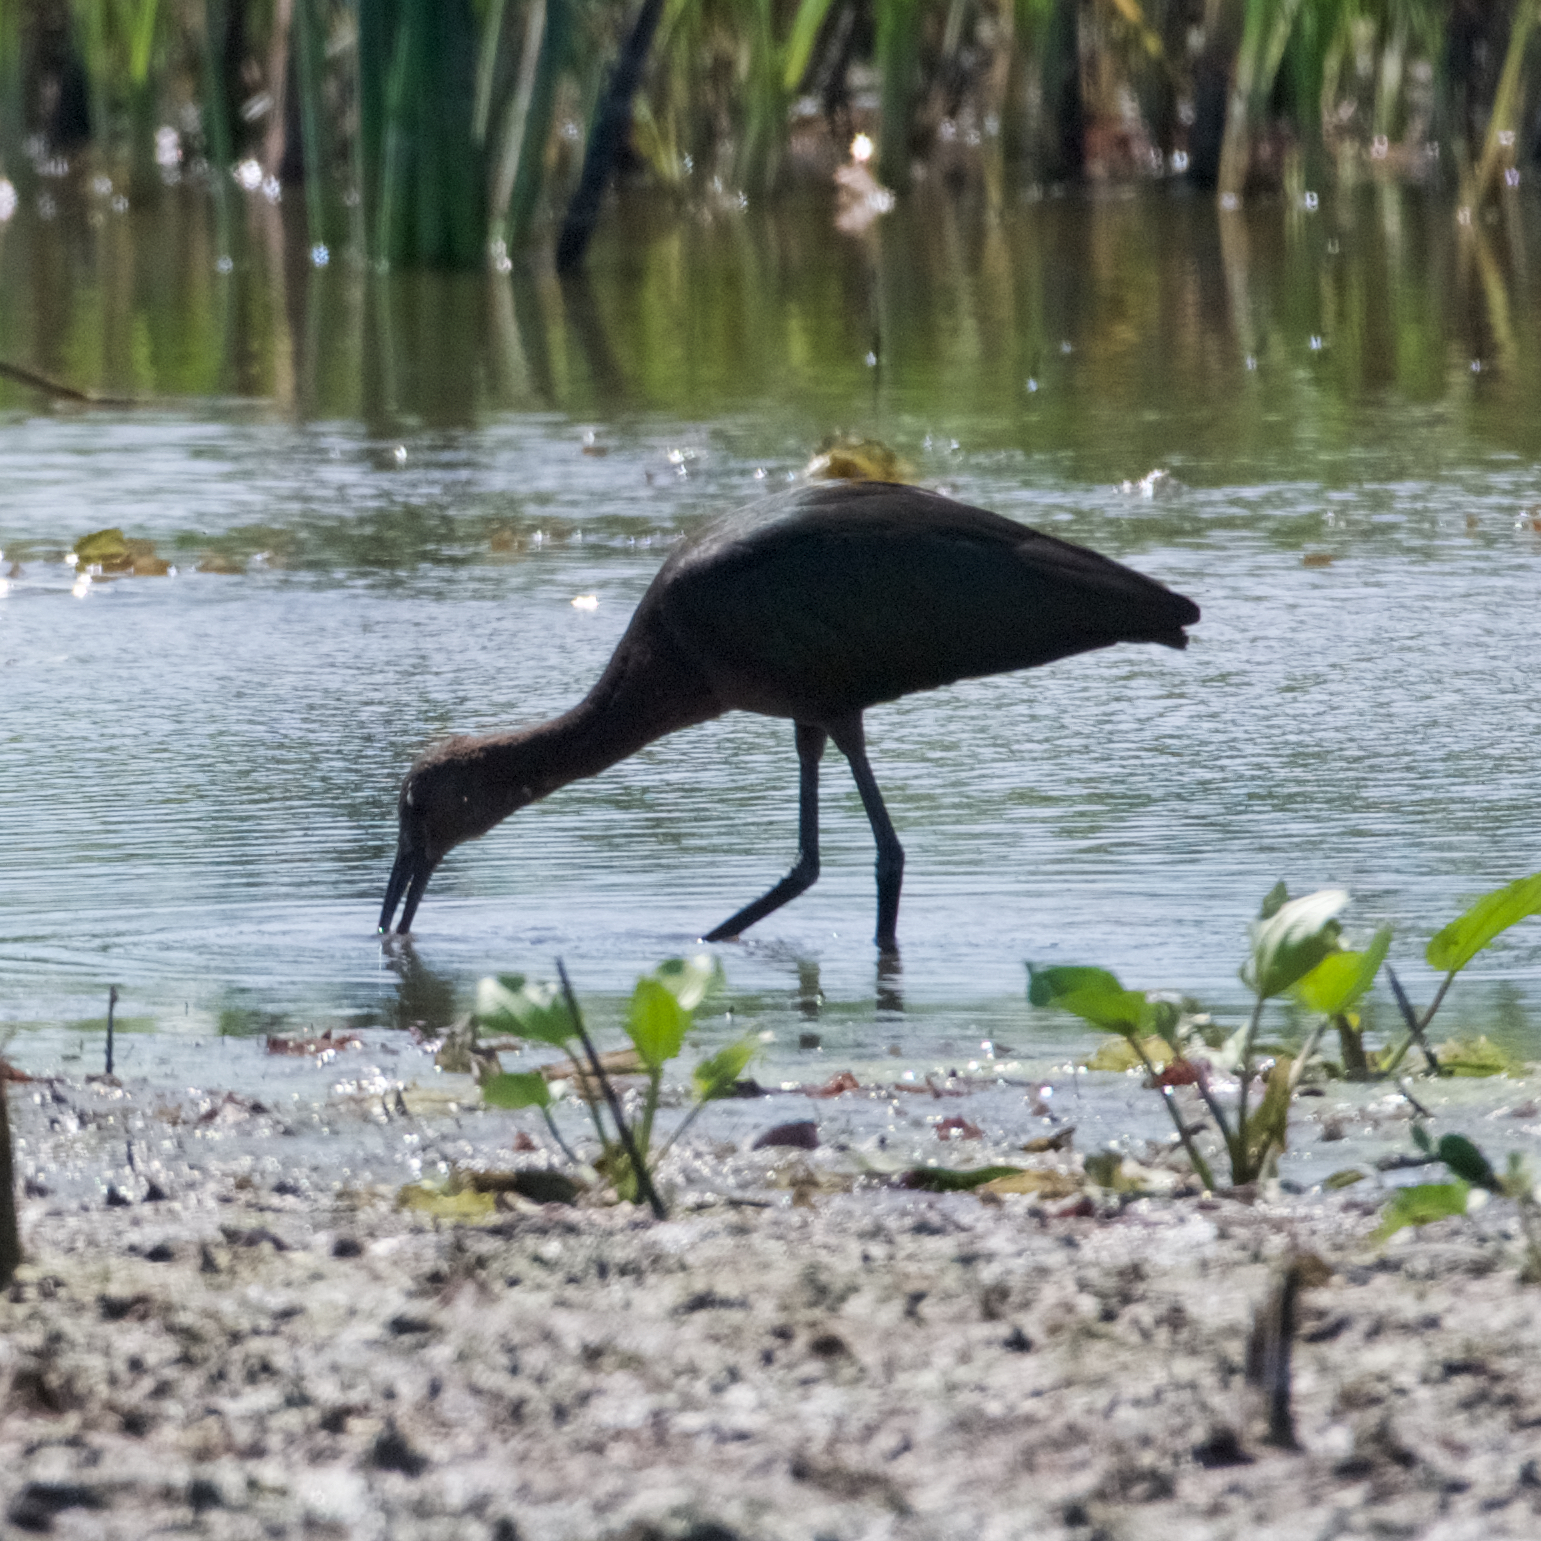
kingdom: Animalia
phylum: Chordata
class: Aves
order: Pelecaniformes
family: Threskiornithidae
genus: Plegadis
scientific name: Plegadis chihi
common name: White-faced ibis
